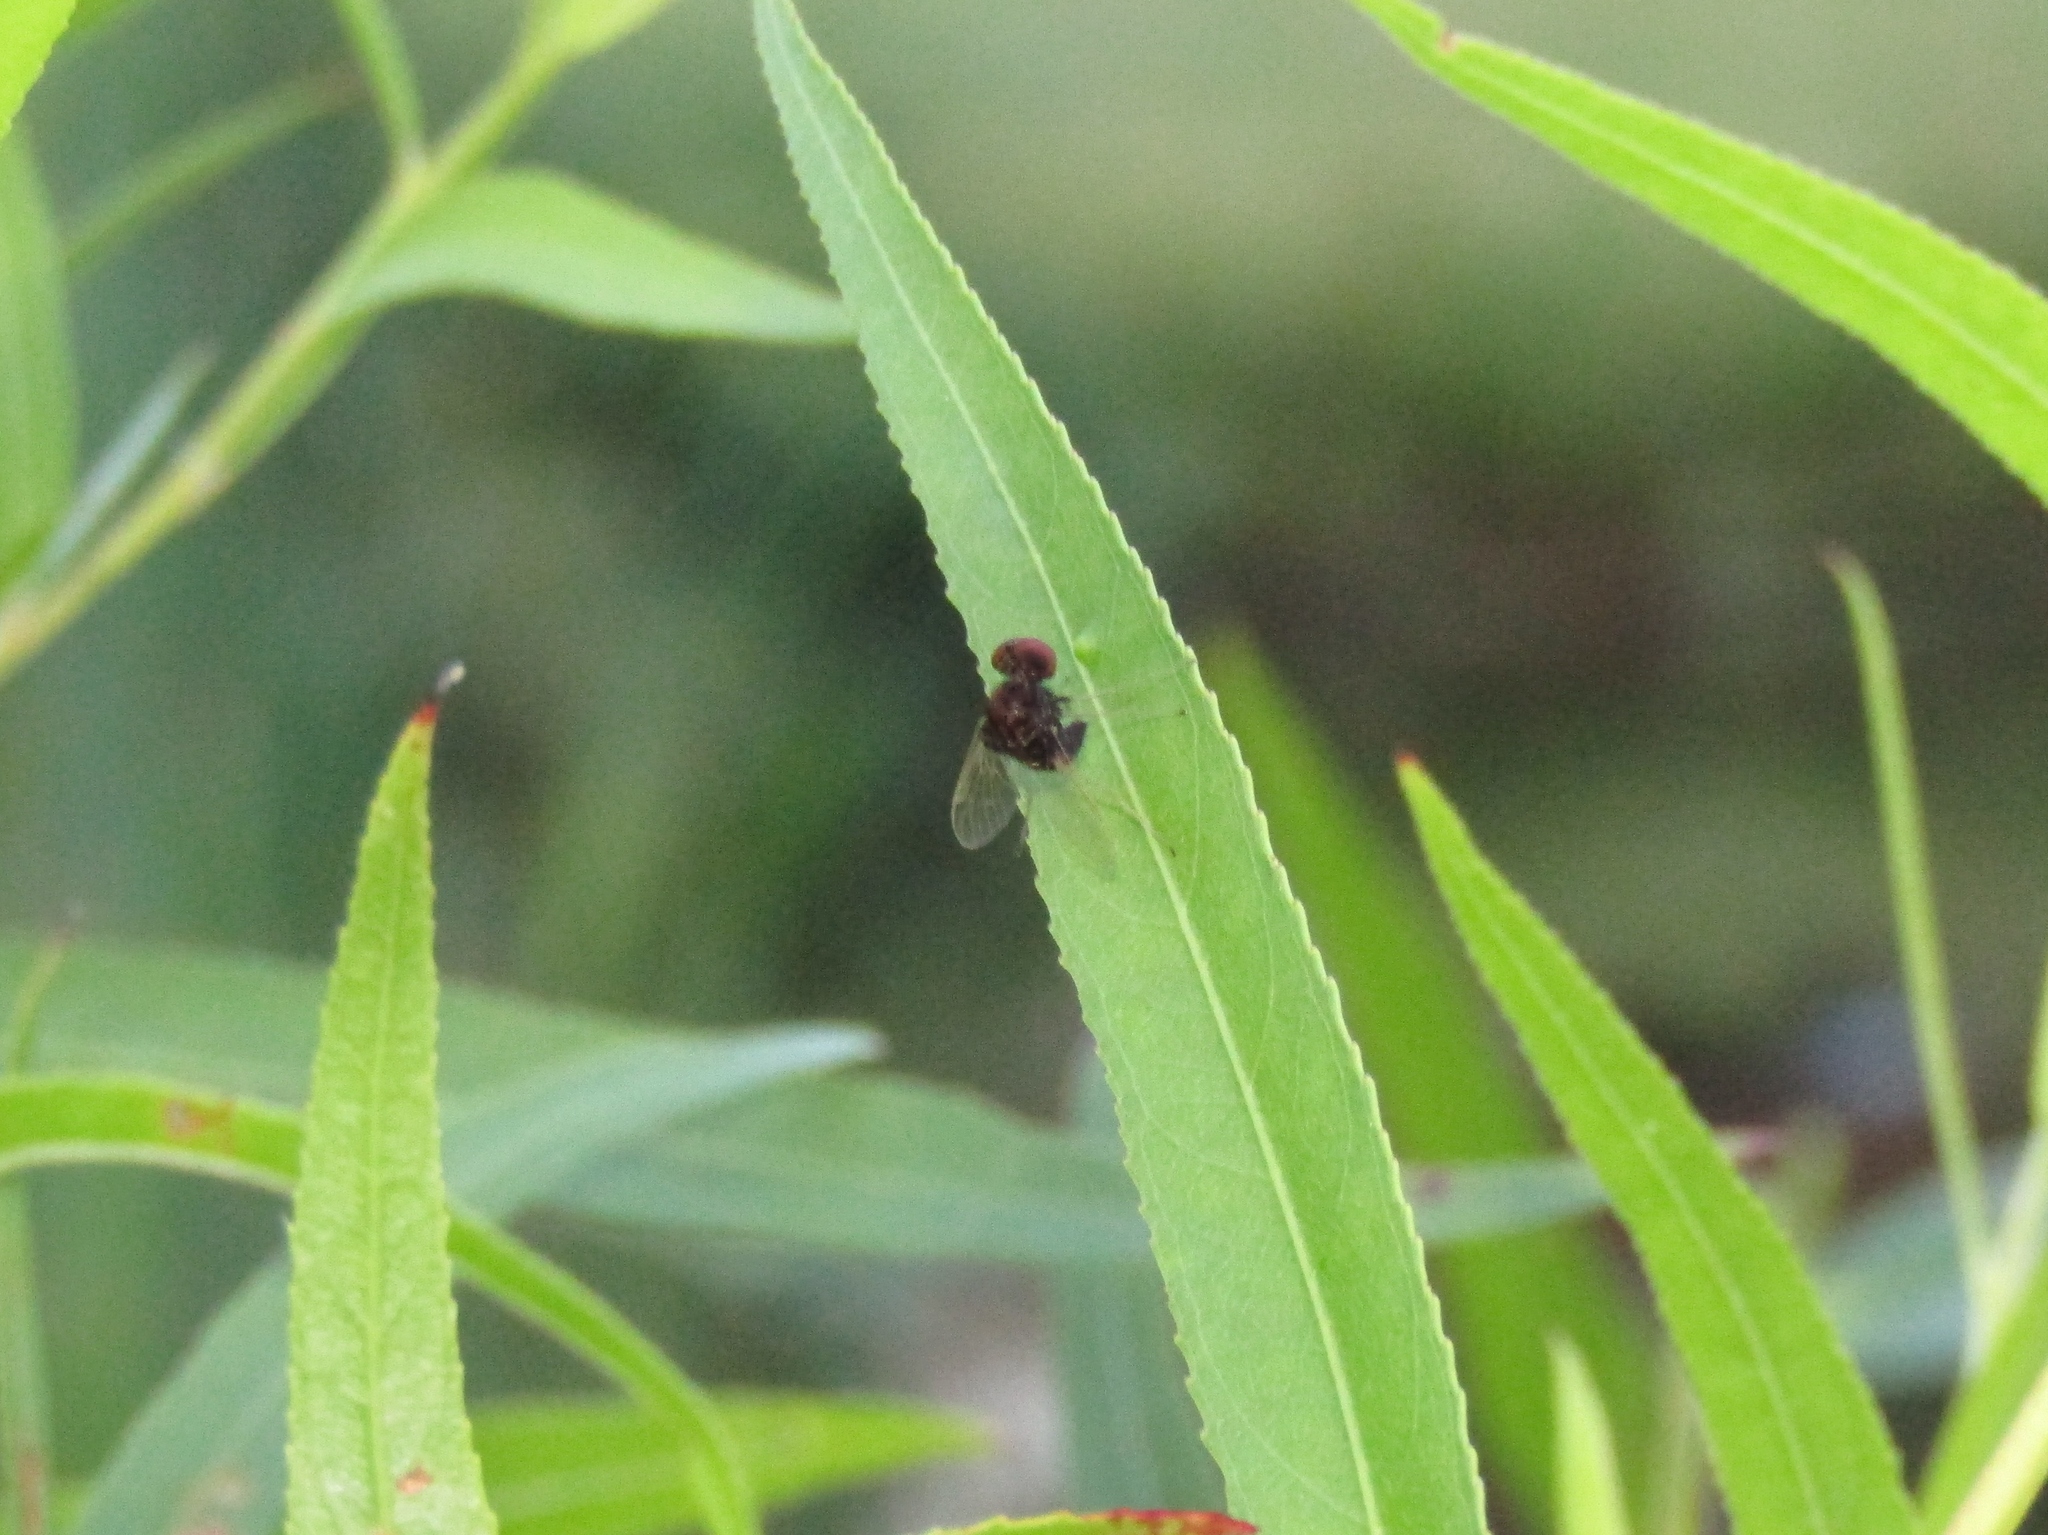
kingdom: Animalia
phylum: Arthropoda
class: Insecta
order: Diptera
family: Rhagionidae
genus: Chrysopilus
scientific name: Chrysopilus basilaris
